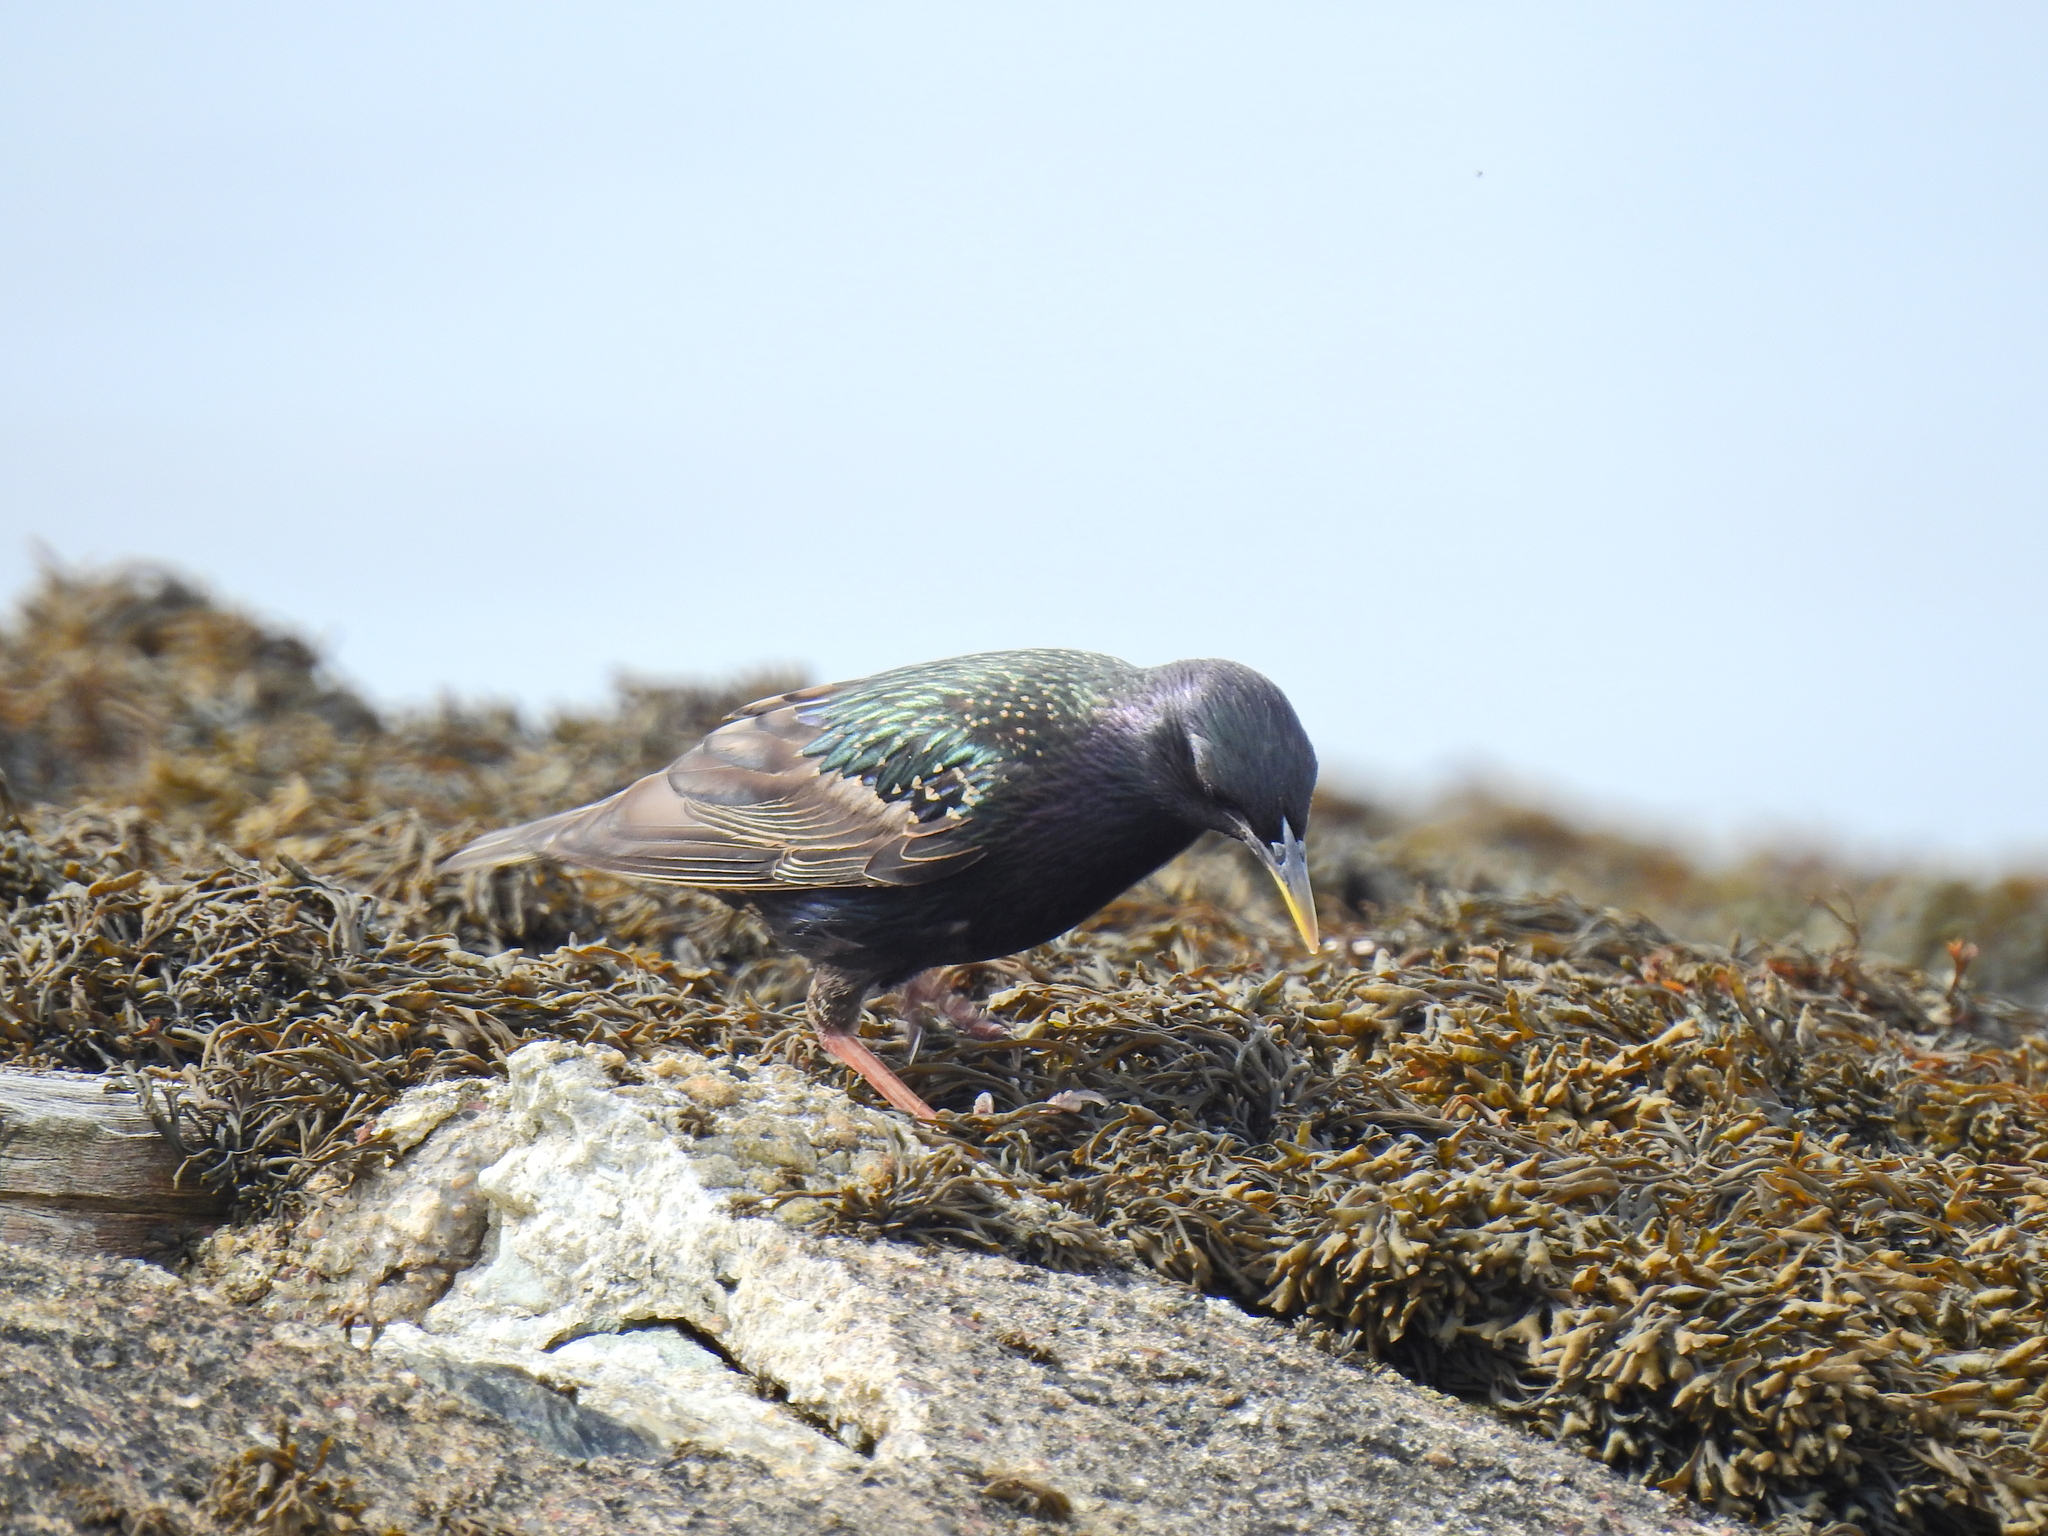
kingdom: Animalia
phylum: Chordata
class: Aves
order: Passeriformes
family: Sturnidae
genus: Sturnus
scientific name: Sturnus vulgaris
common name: Common starling
